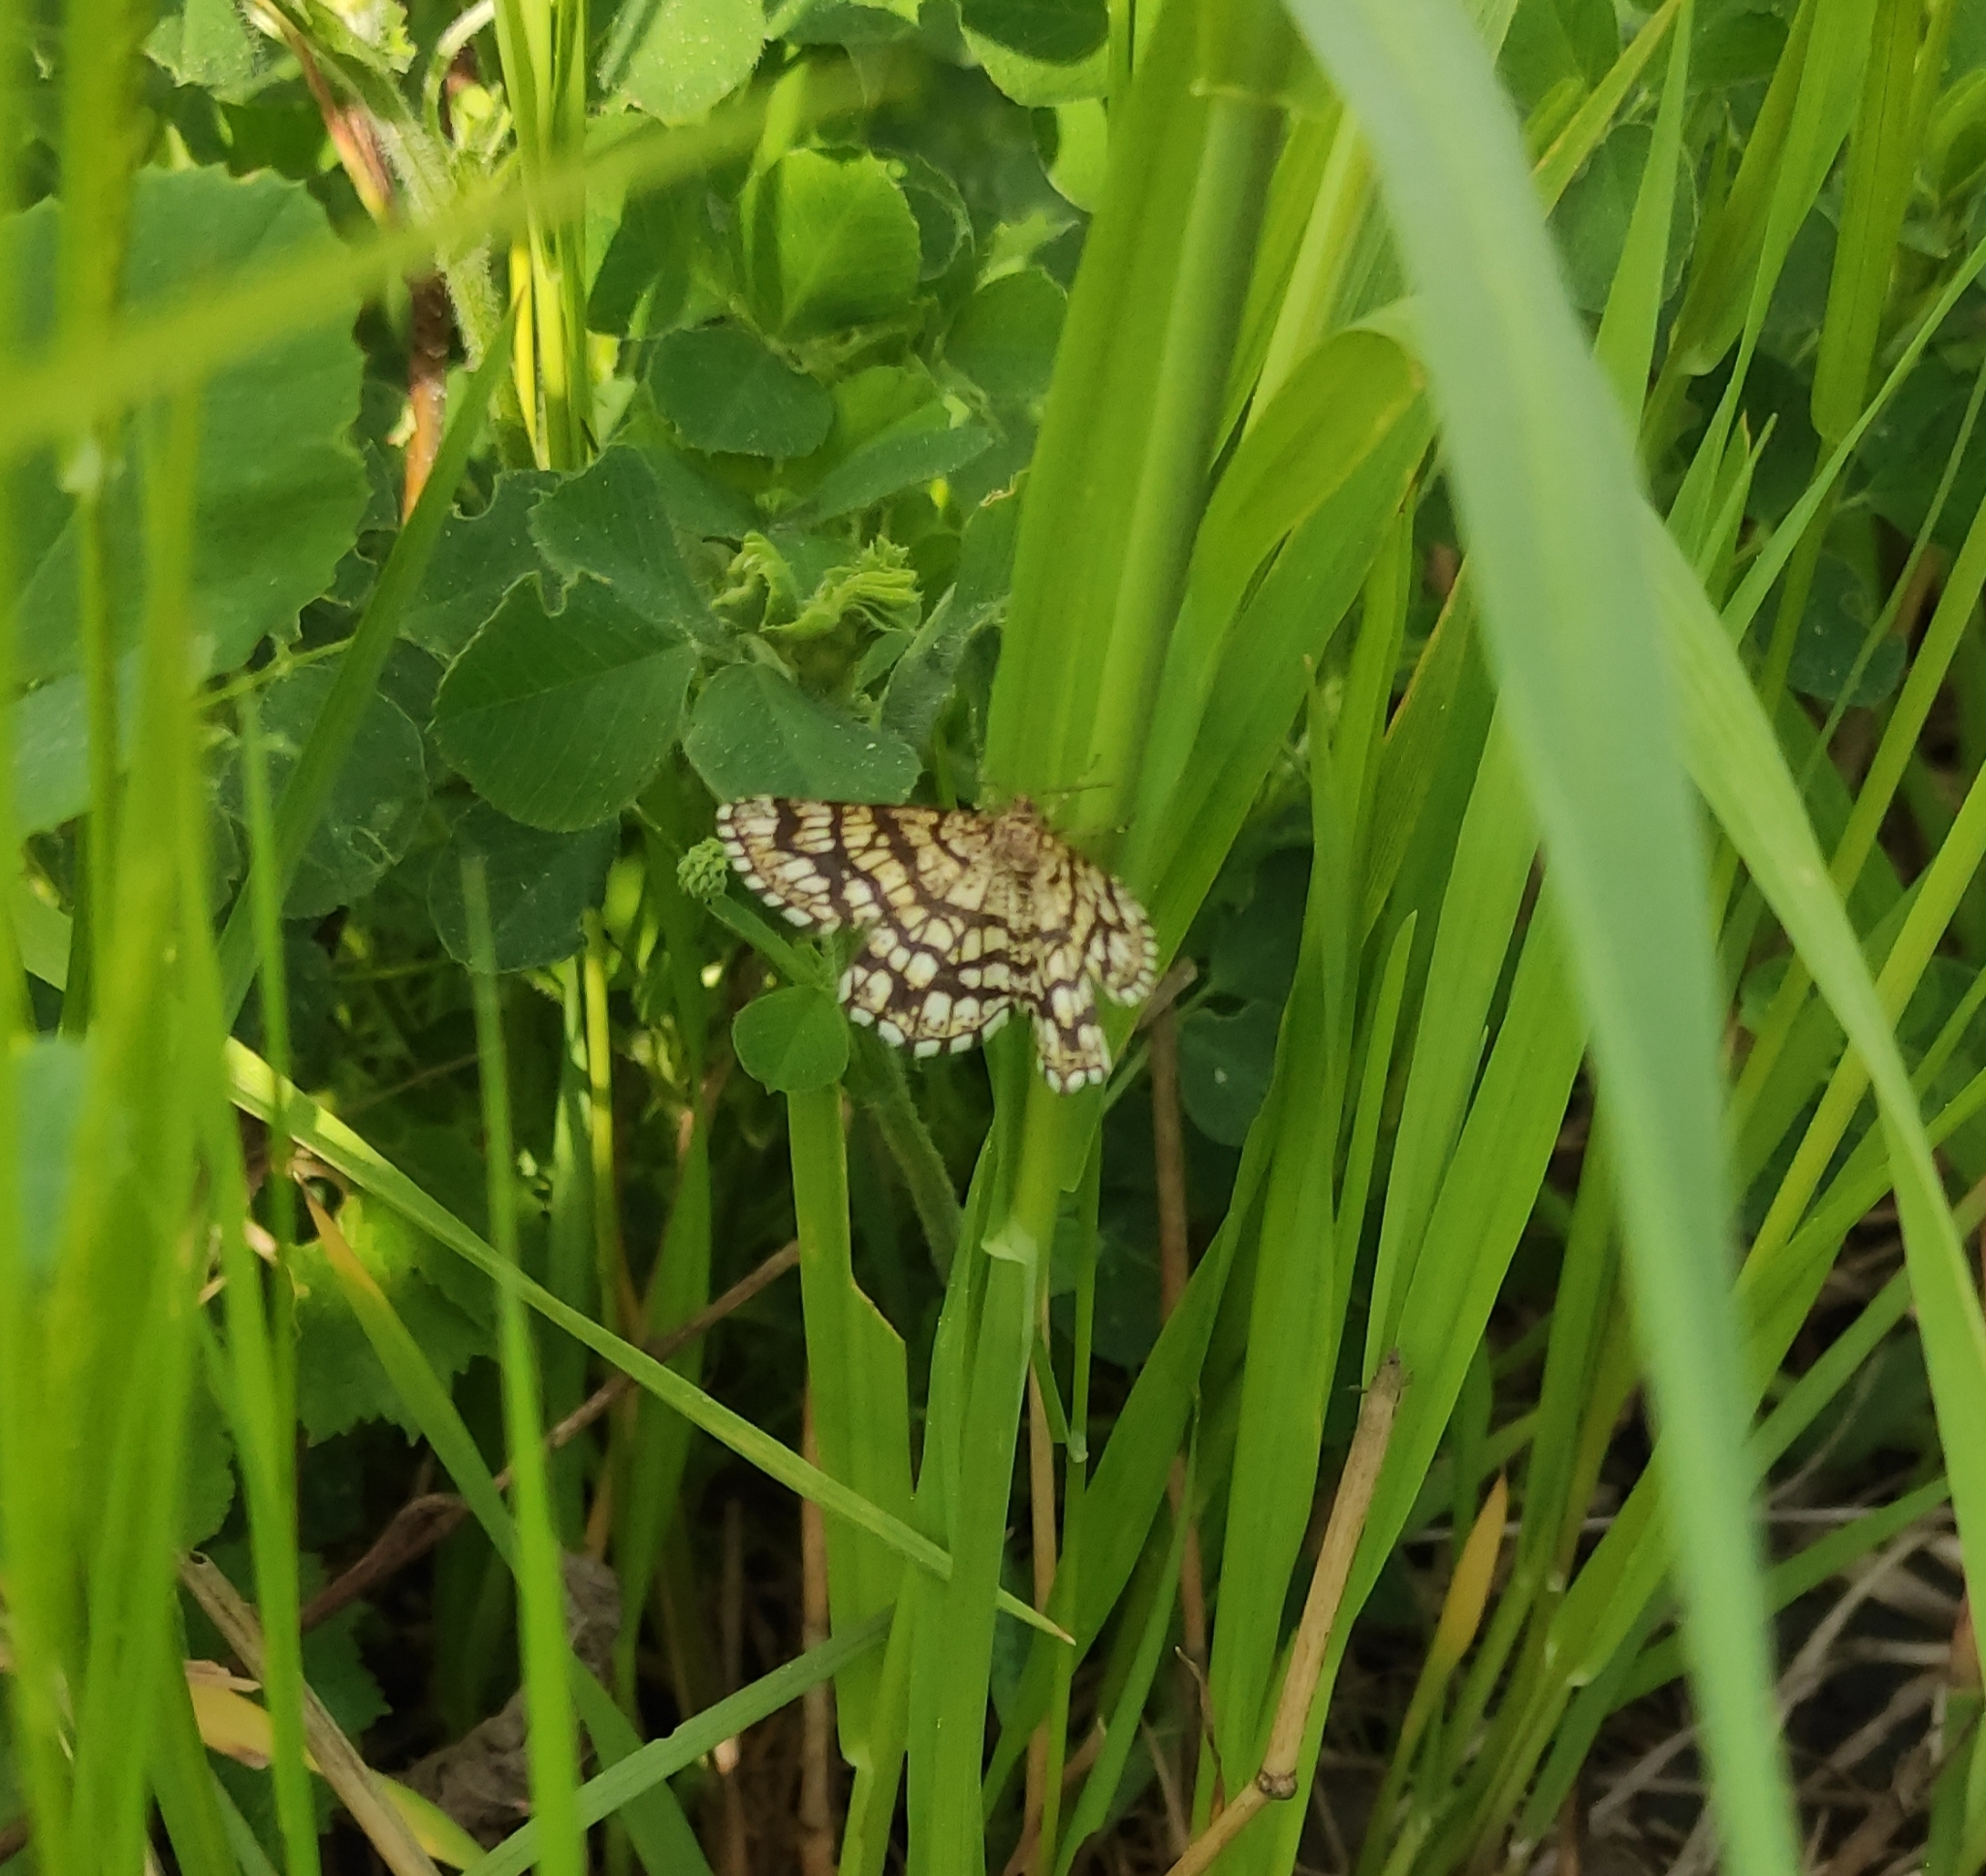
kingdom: Animalia
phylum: Arthropoda
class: Insecta
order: Lepidoptera
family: Geometridae
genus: Chiasmia
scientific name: Chiasmia clathrata
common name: Latticed heath
